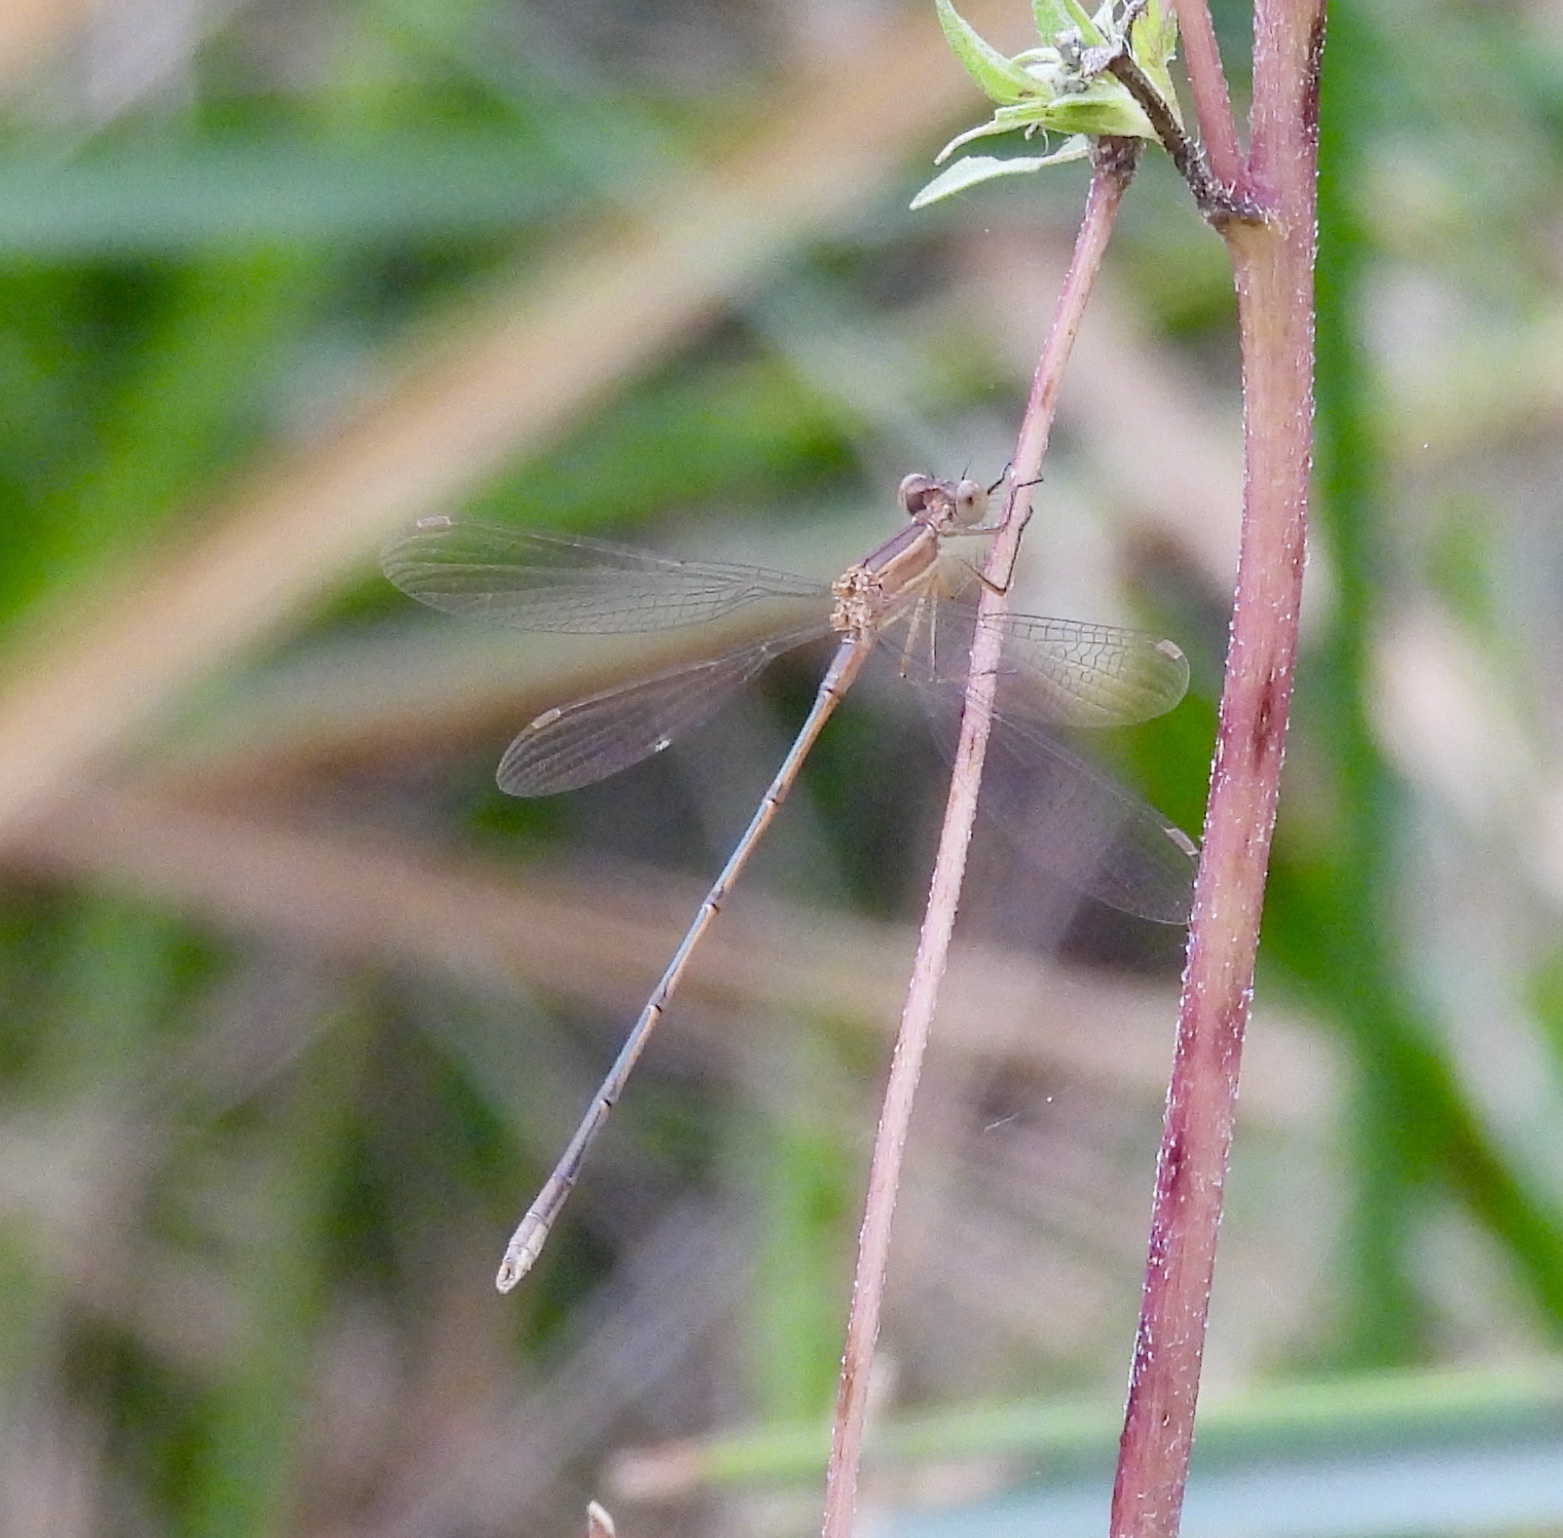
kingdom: Animalia
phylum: Arthropoda
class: Insecta
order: Odonata
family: Lestidae
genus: Lestes
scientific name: Lestes alacer
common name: Plateau spreadwing
